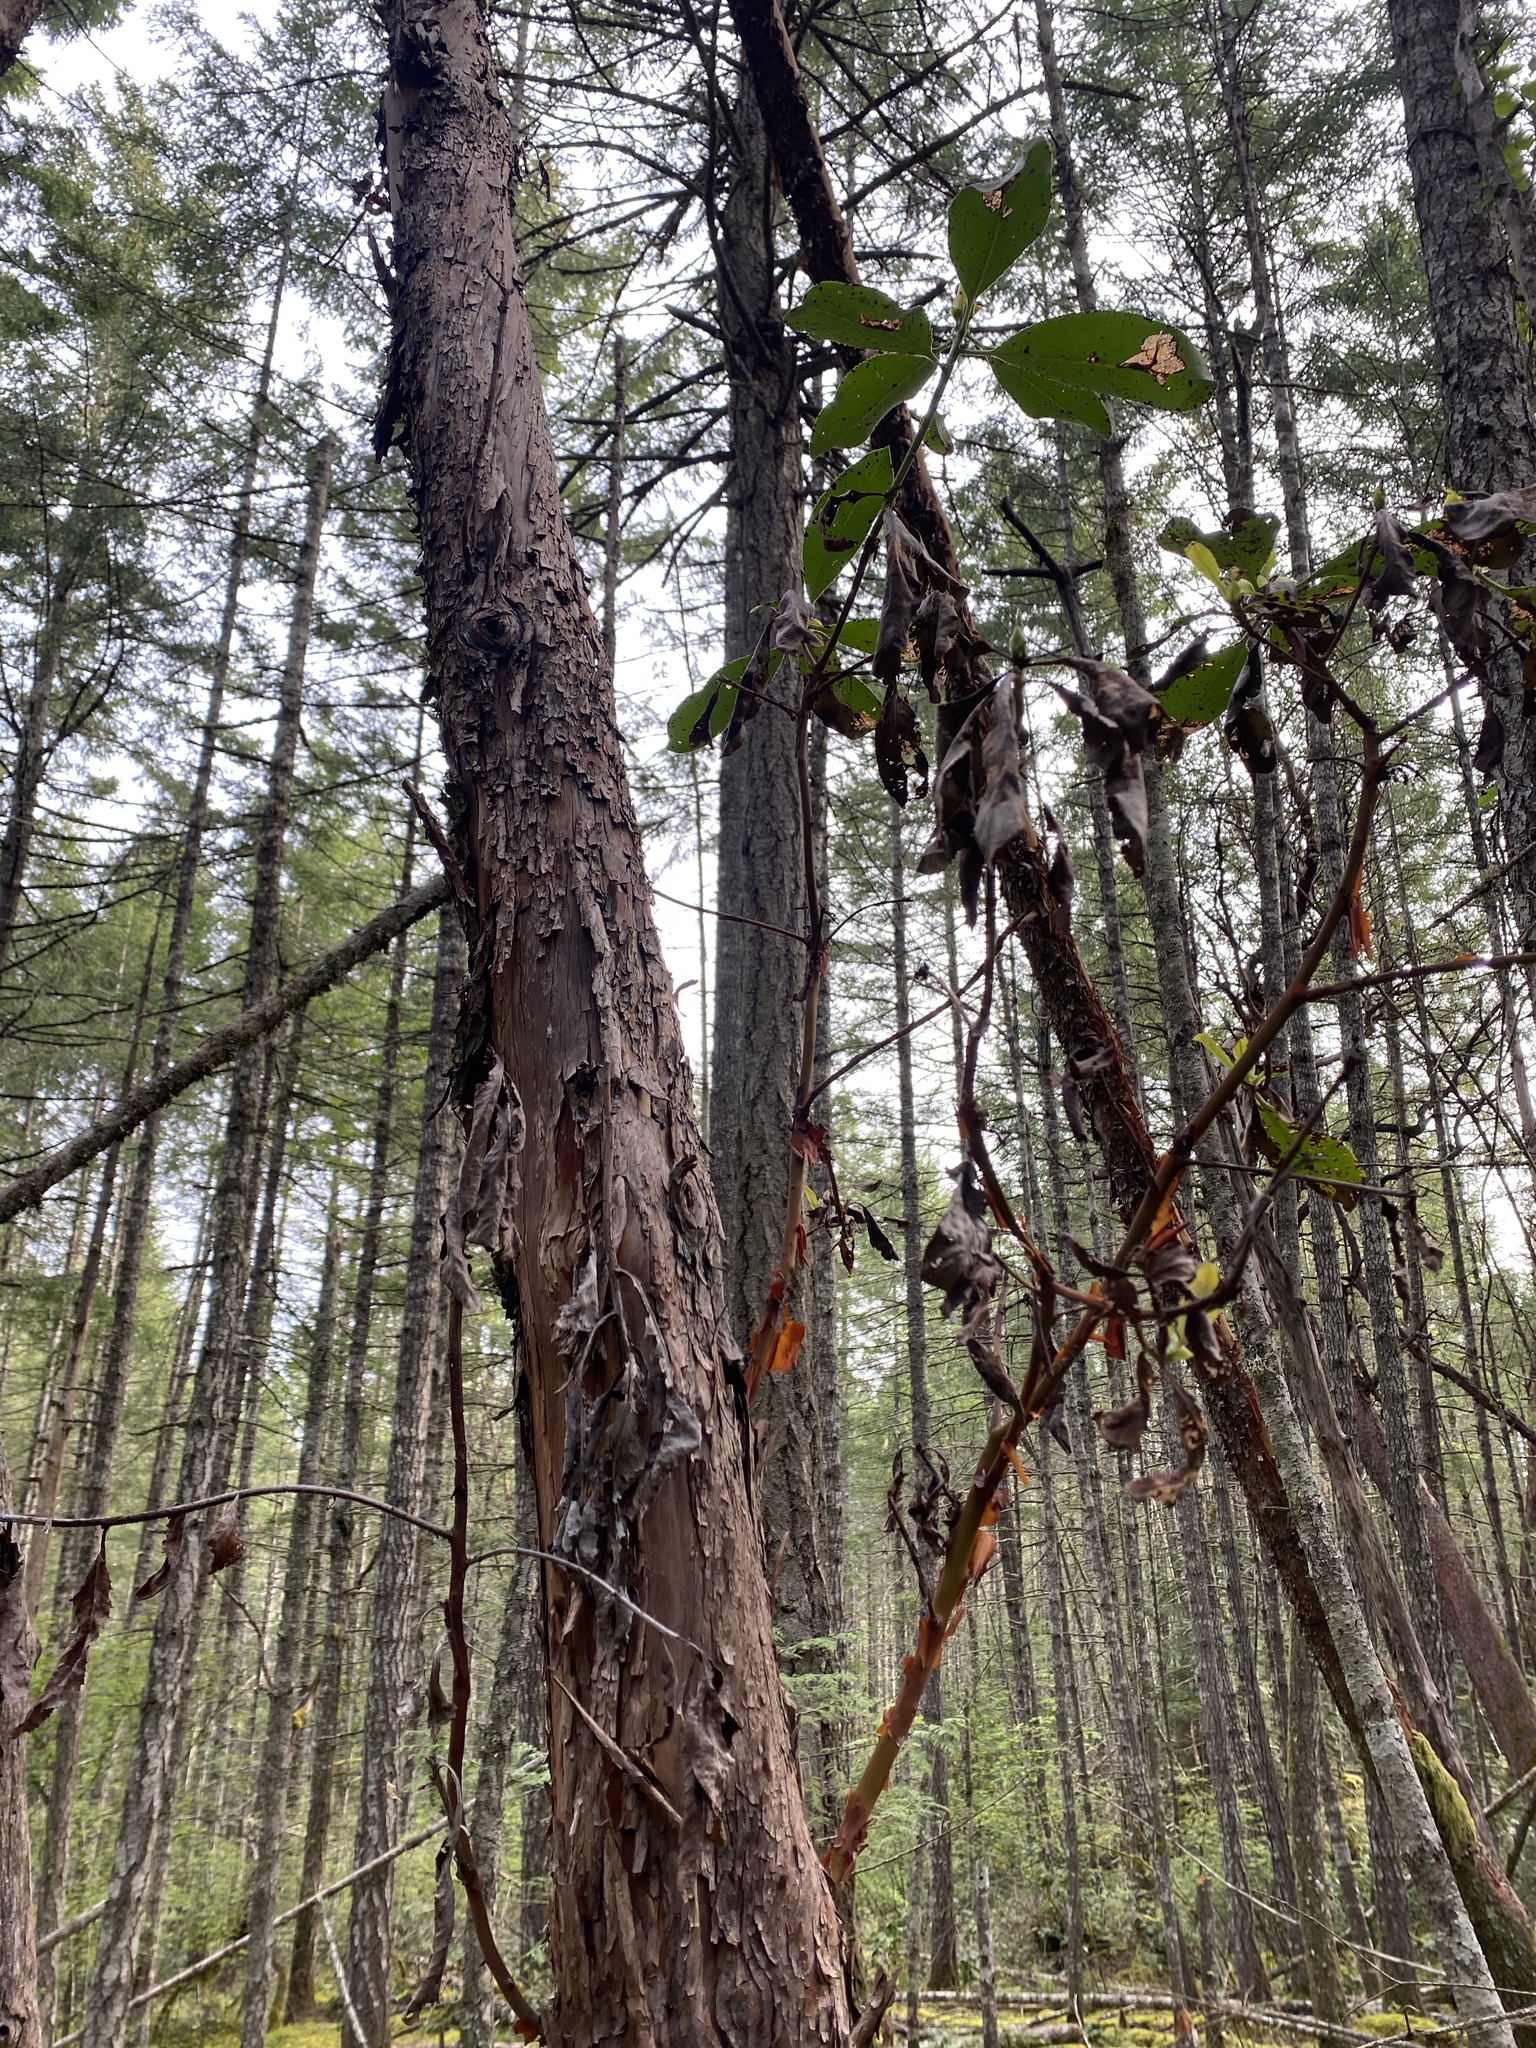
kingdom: Plantae
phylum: Tracheophyta
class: Magnoliopsida
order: Ericales
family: Ericaceae
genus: Arbutus
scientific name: Arbutus menziesii
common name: Pacific madrone
